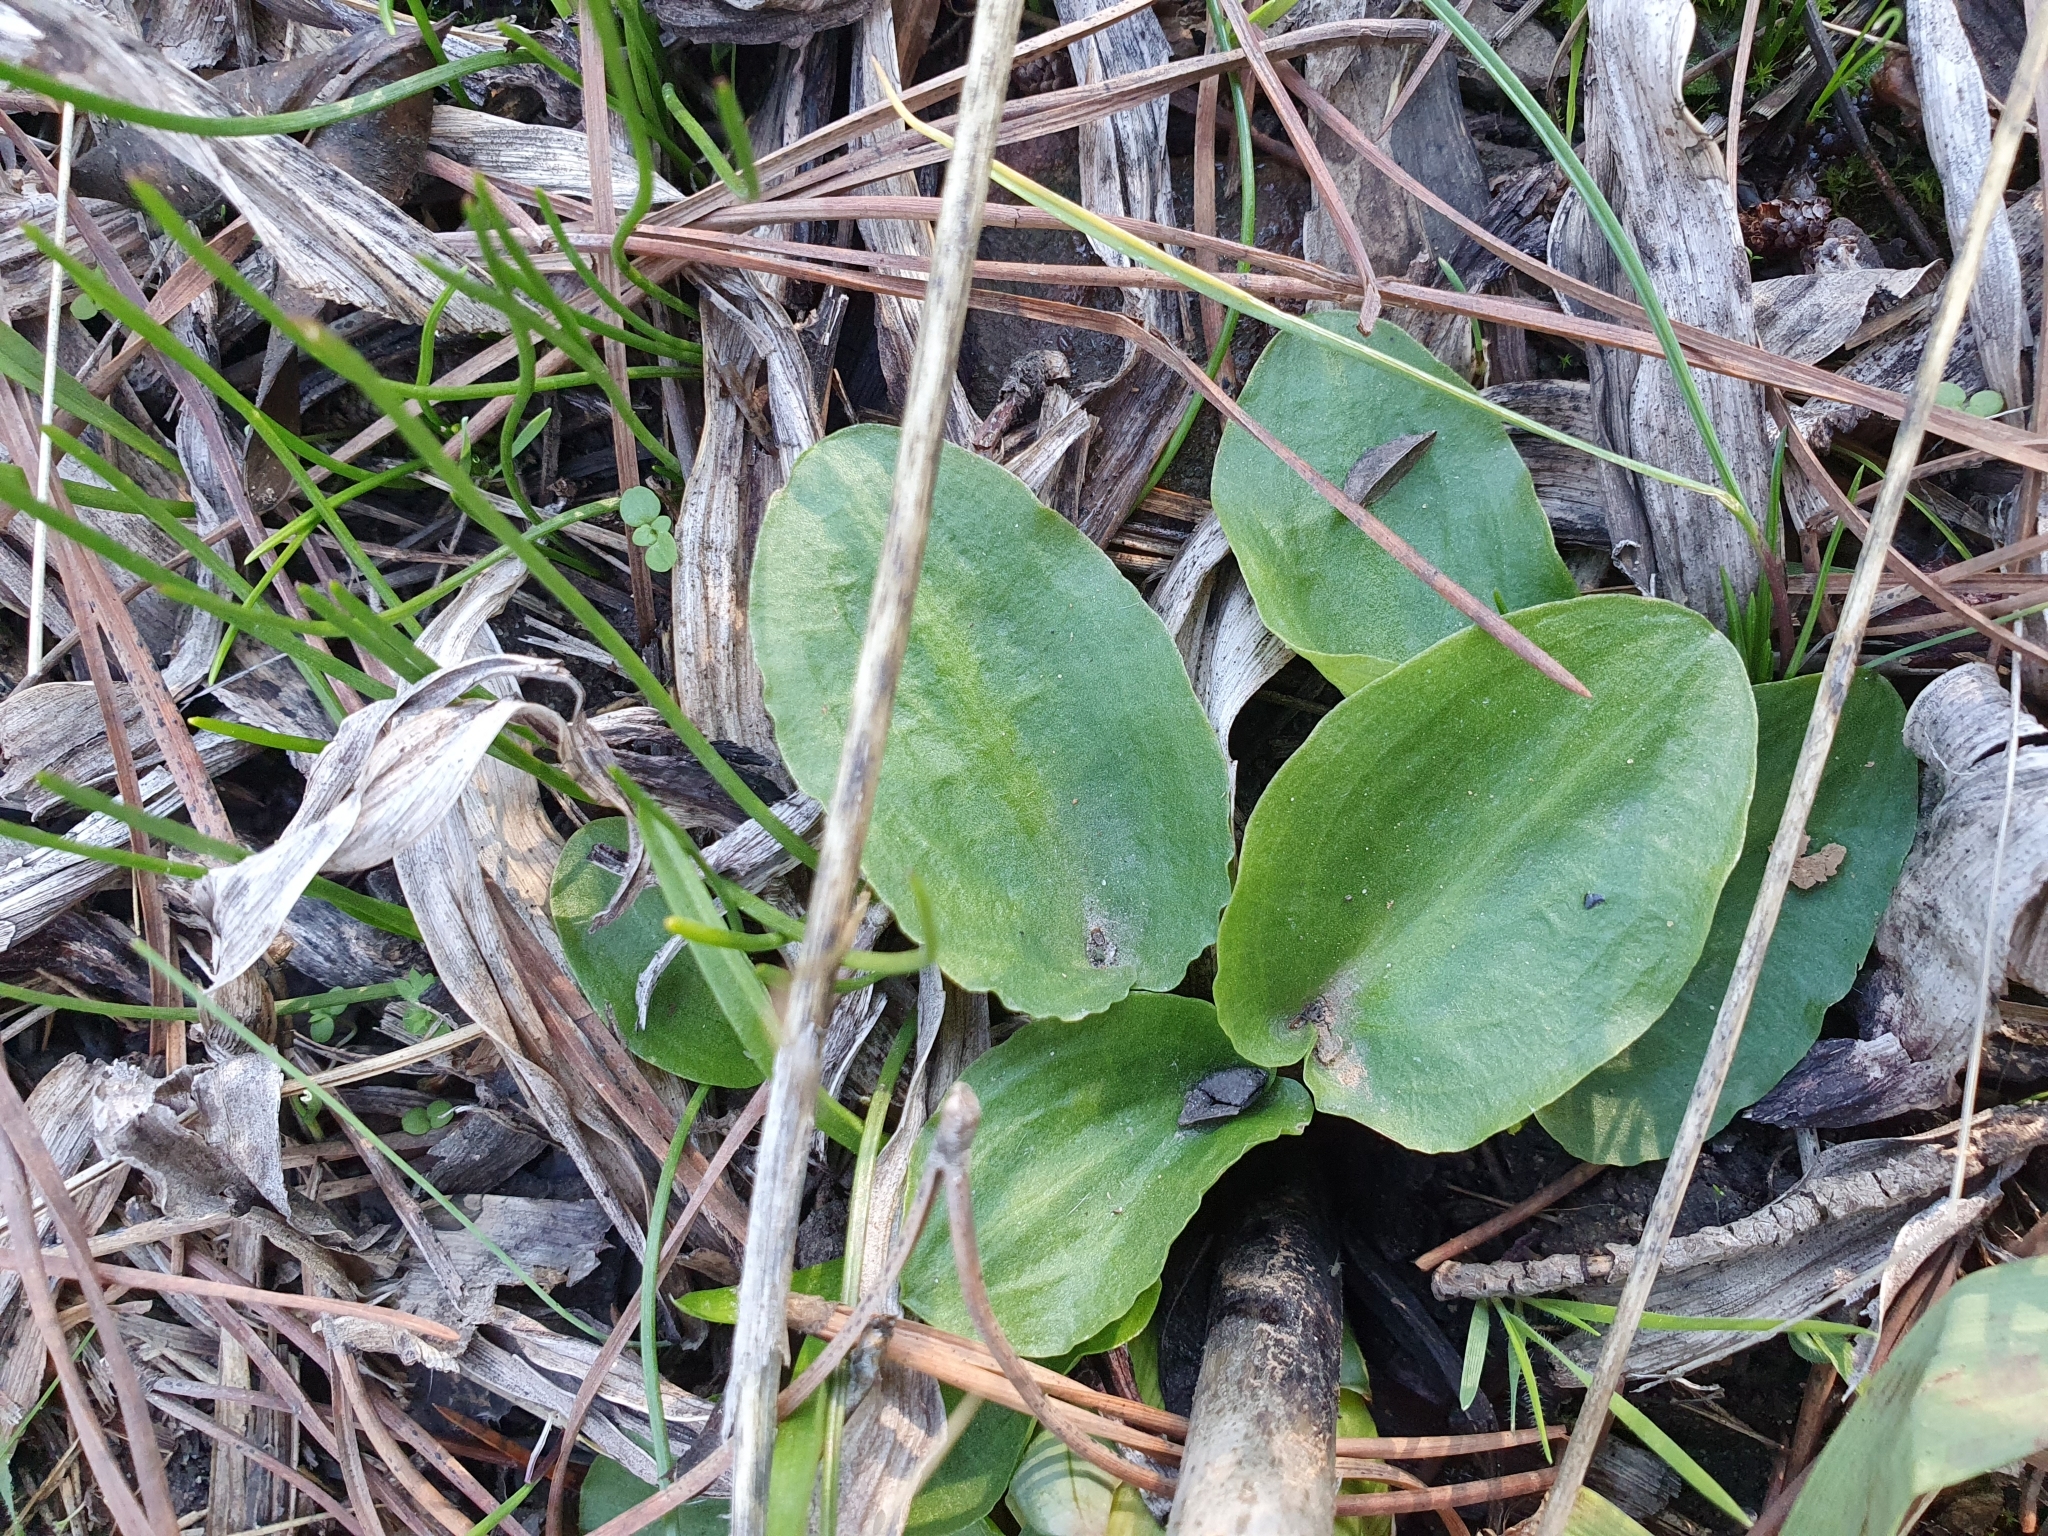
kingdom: Plantae
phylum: Tracheophyta
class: Liliopsida
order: Alismatales
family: Araceae
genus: Ambrosina
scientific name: Ambrosina bassii
